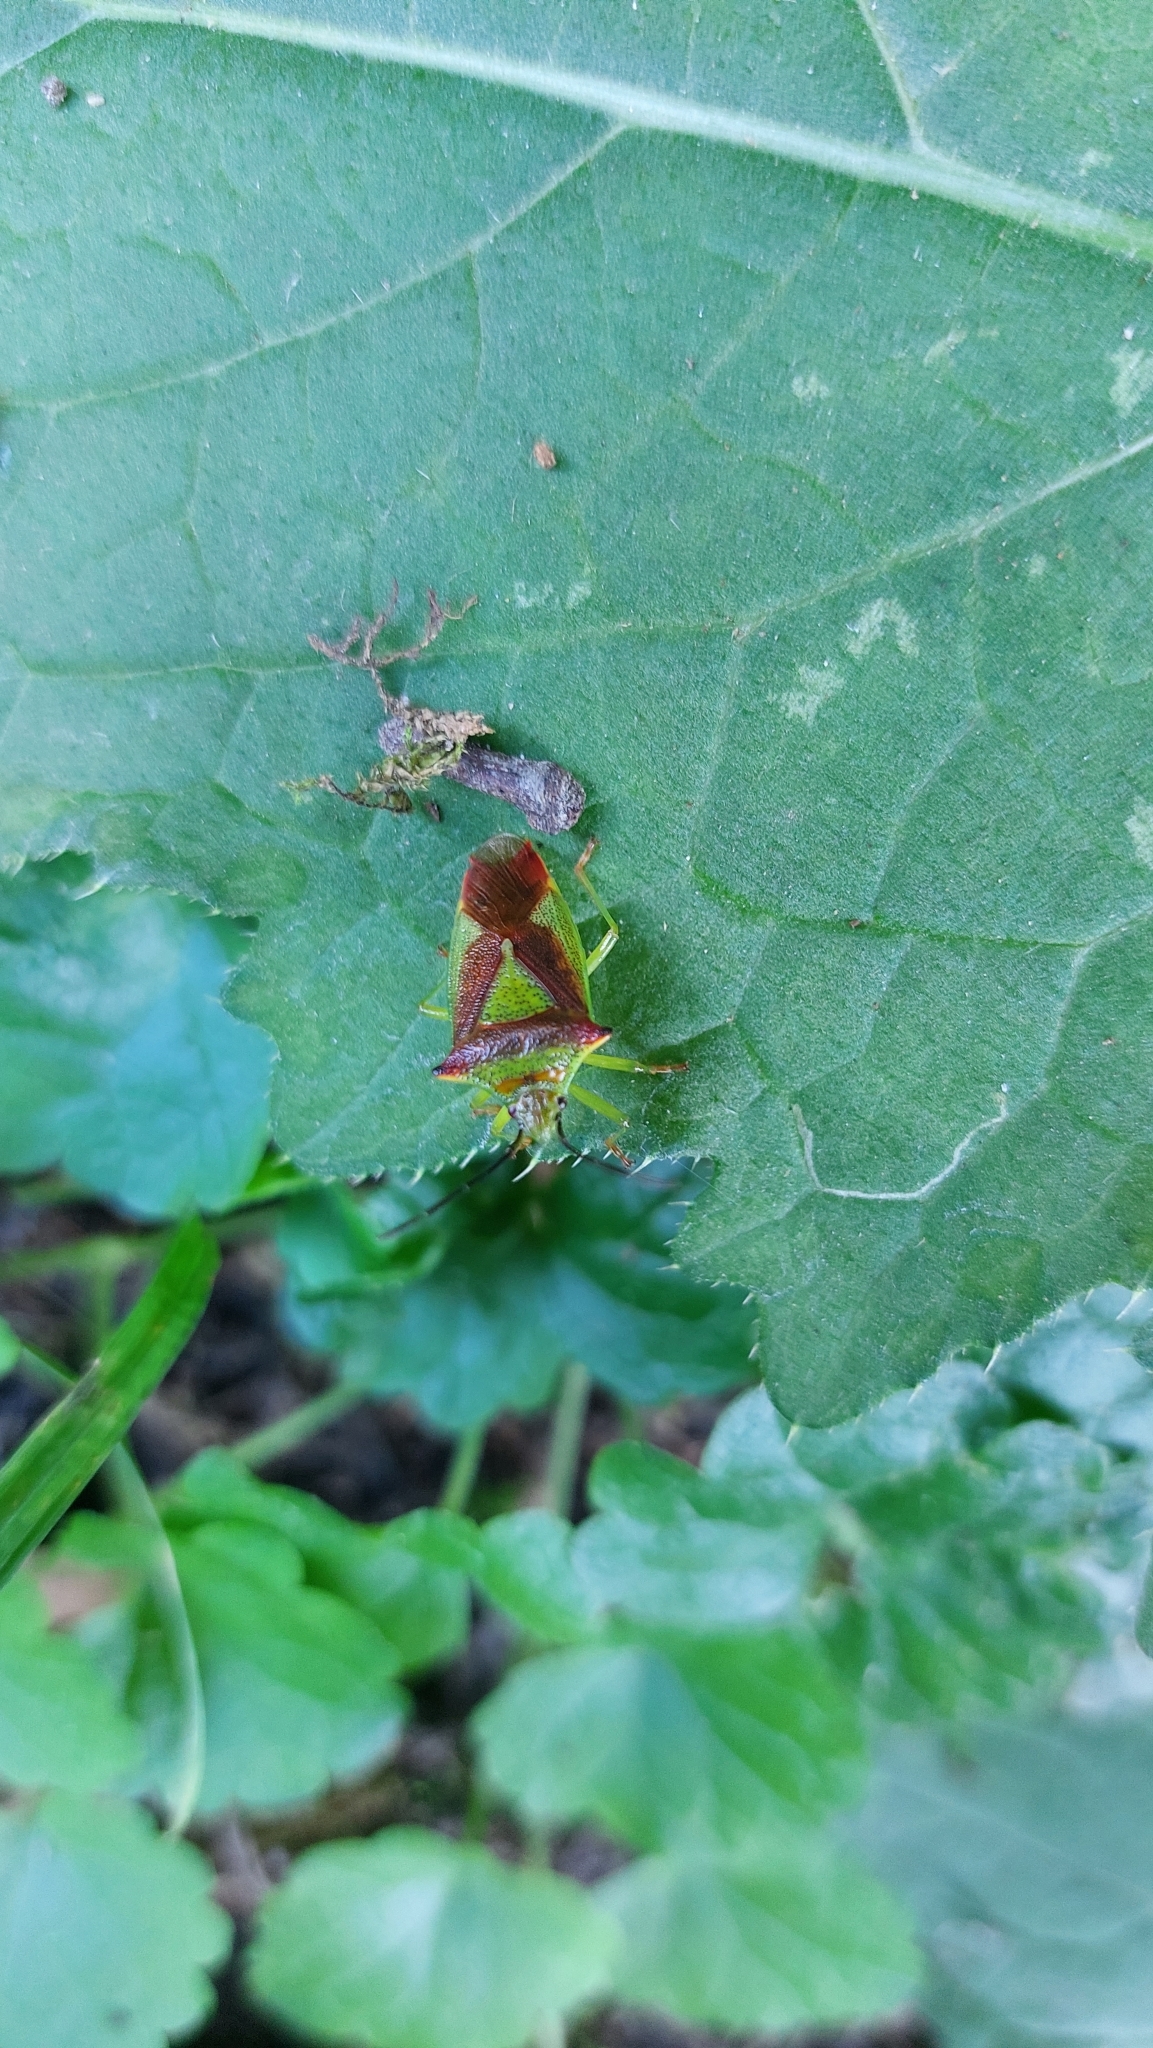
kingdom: Animalia
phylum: Arthropoda
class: Insecta
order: Hemiptera
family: Acanthosomatidae
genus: Acanthosoma
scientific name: Acanthosoma haemorrhoidale
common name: Hawthorn shieldbug
